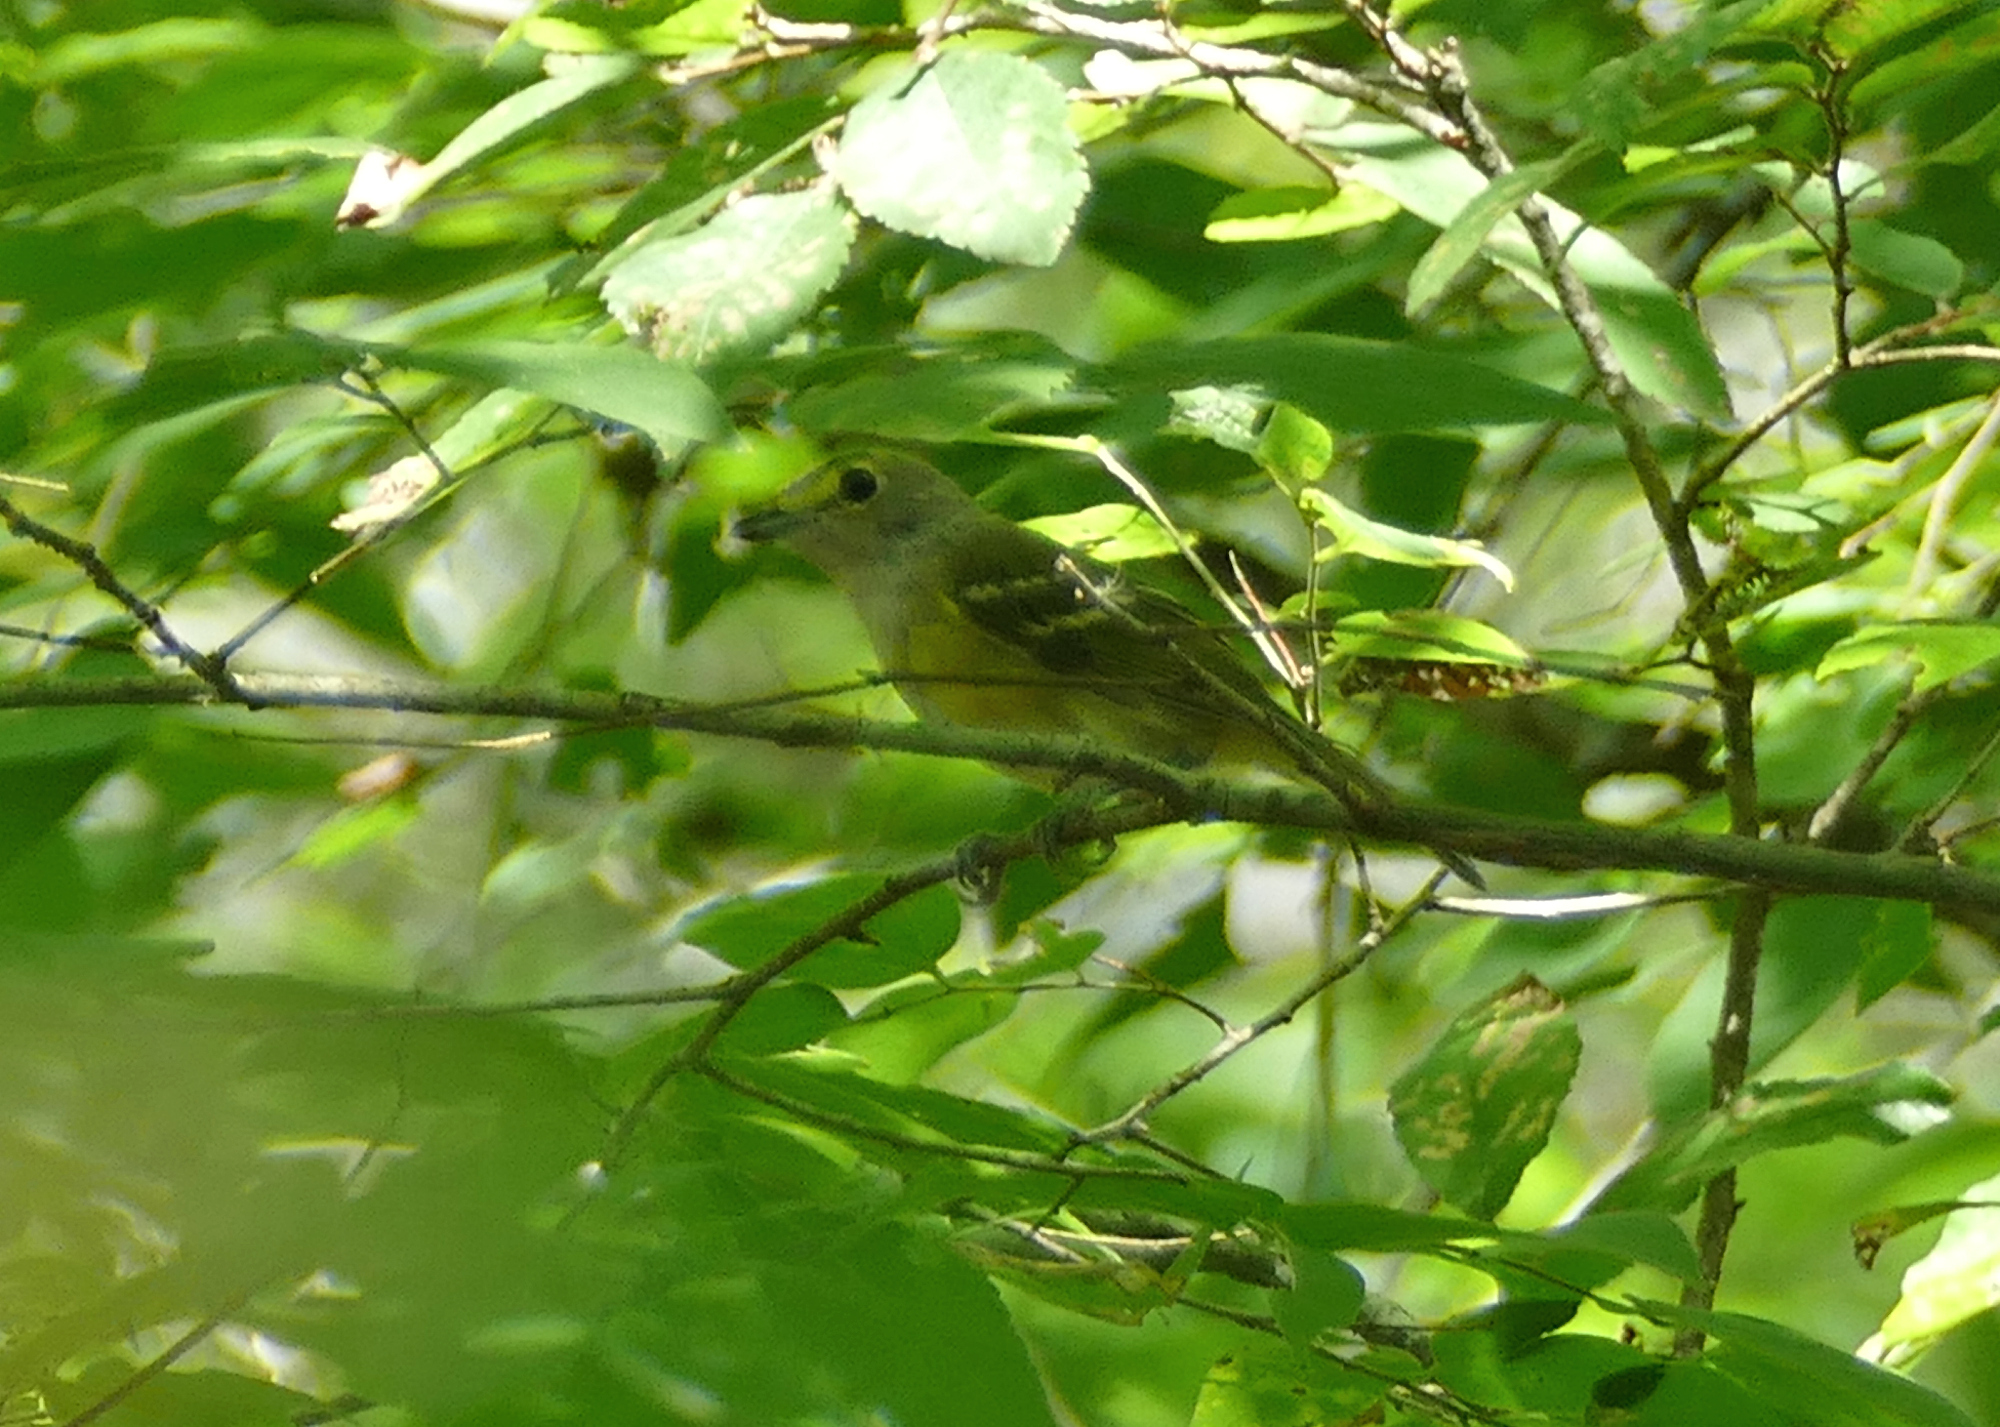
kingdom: Animalia
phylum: Chordata
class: Aves
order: Passeriformes
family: Vireonidae
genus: Vireo
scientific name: Vireo griseus
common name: White-eyed vireo
